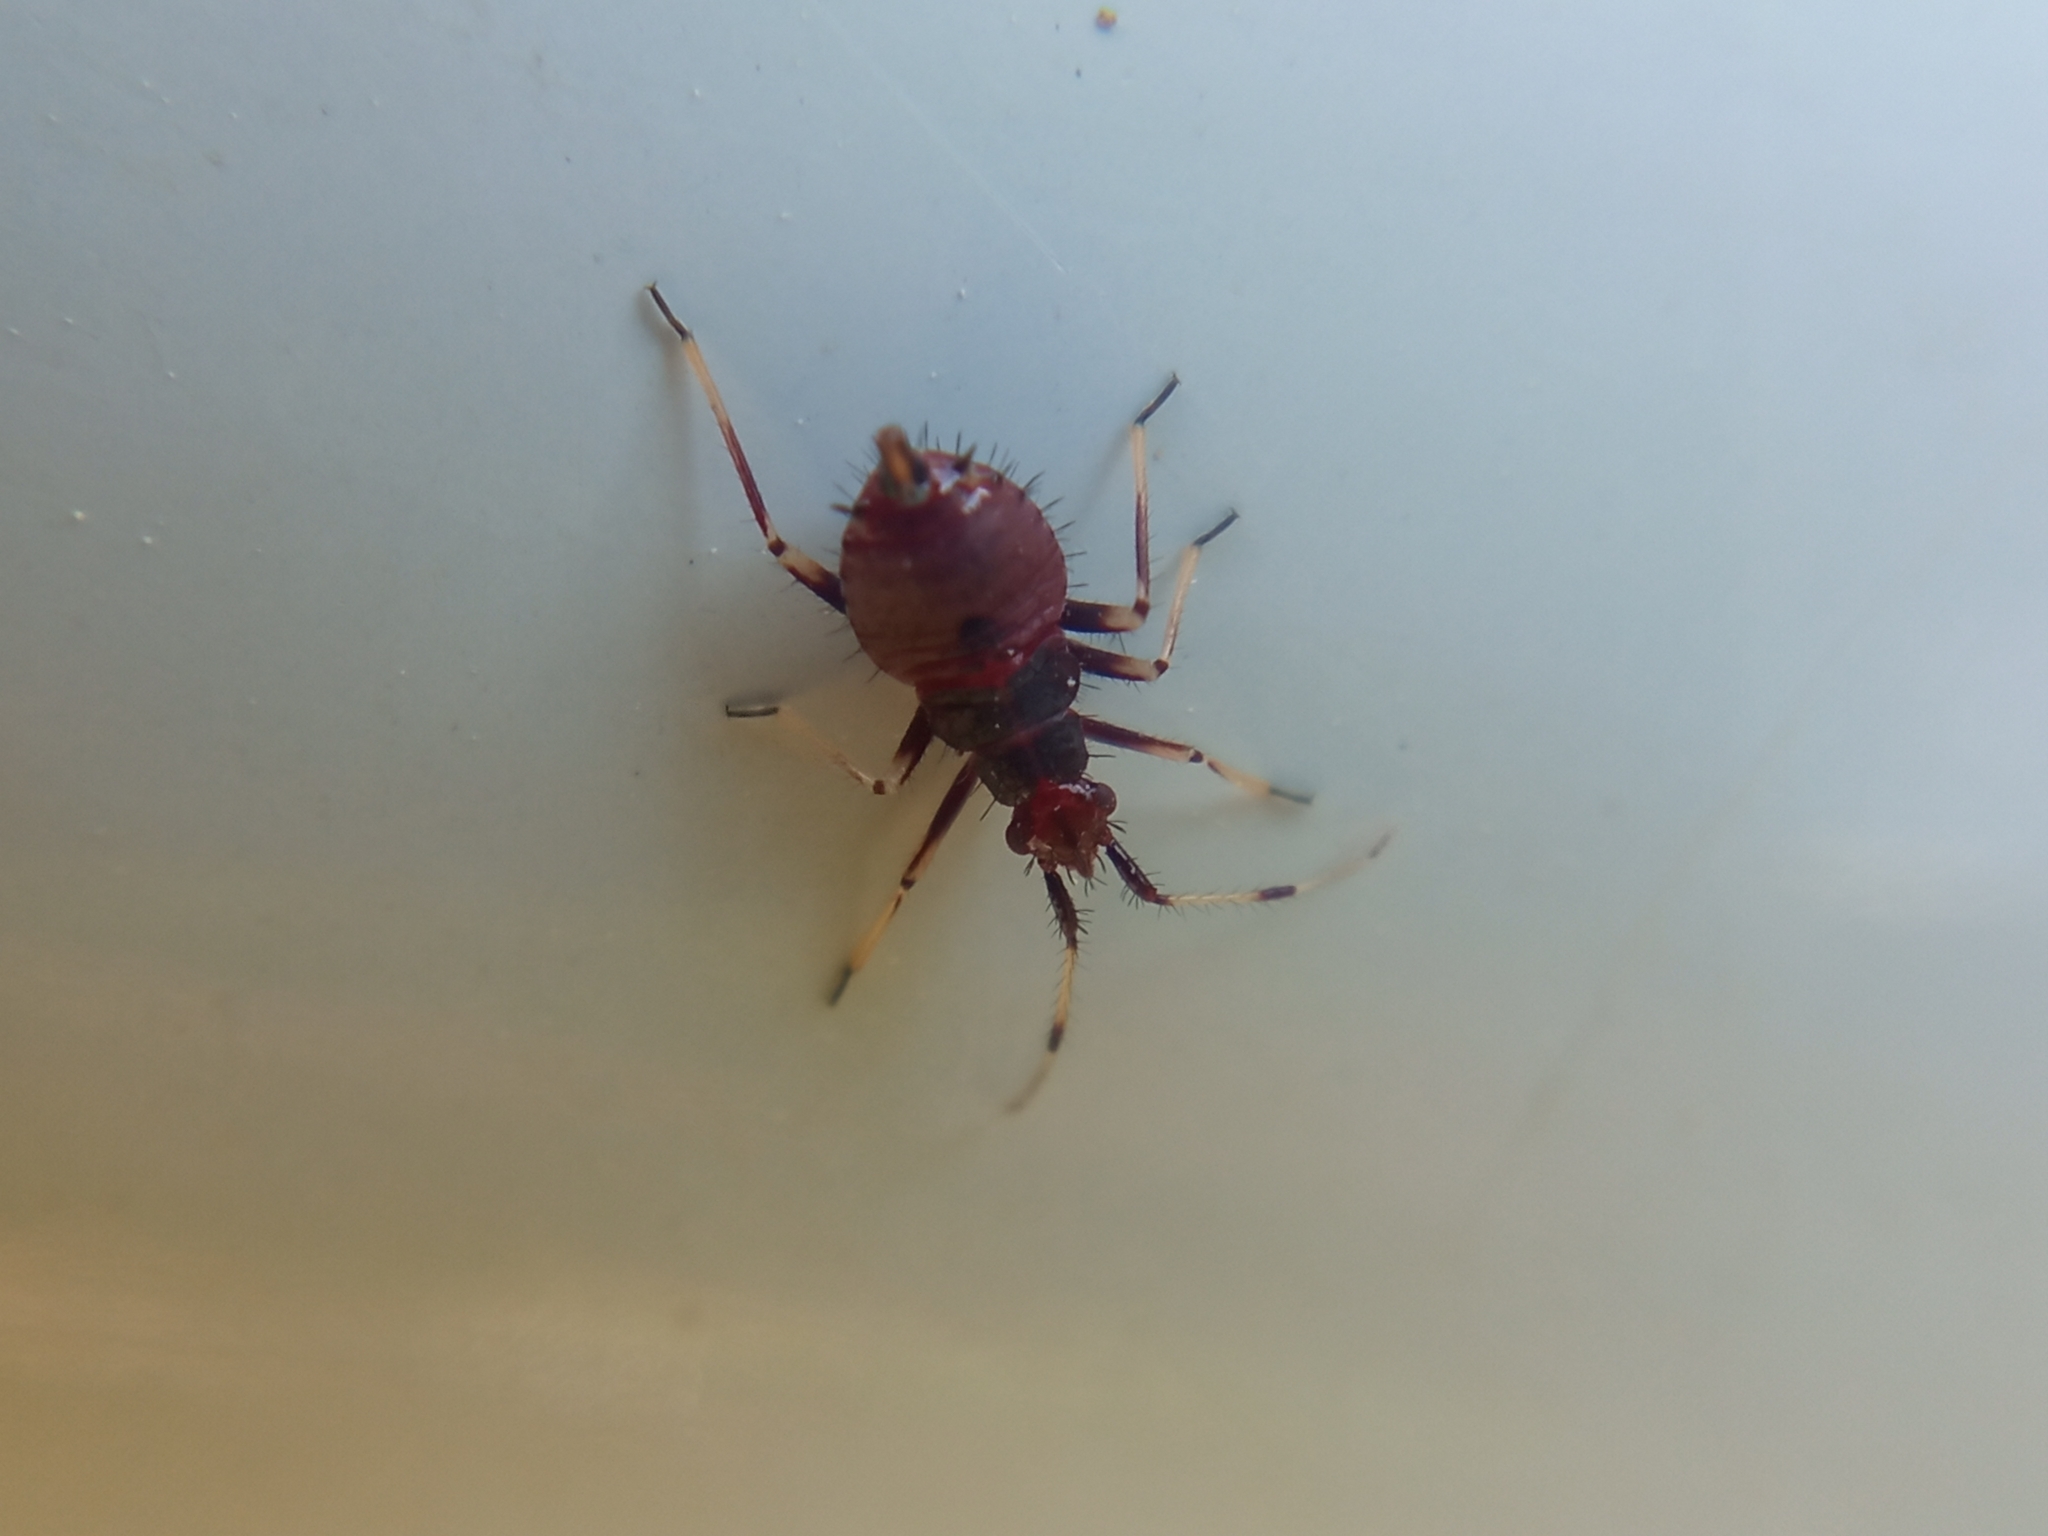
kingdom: Animalia
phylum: Arthropoda
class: Insecta
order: Hemiptera
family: Miridae
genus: Deraeocoris
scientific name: Deraeocoris ruber
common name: Plant bug
